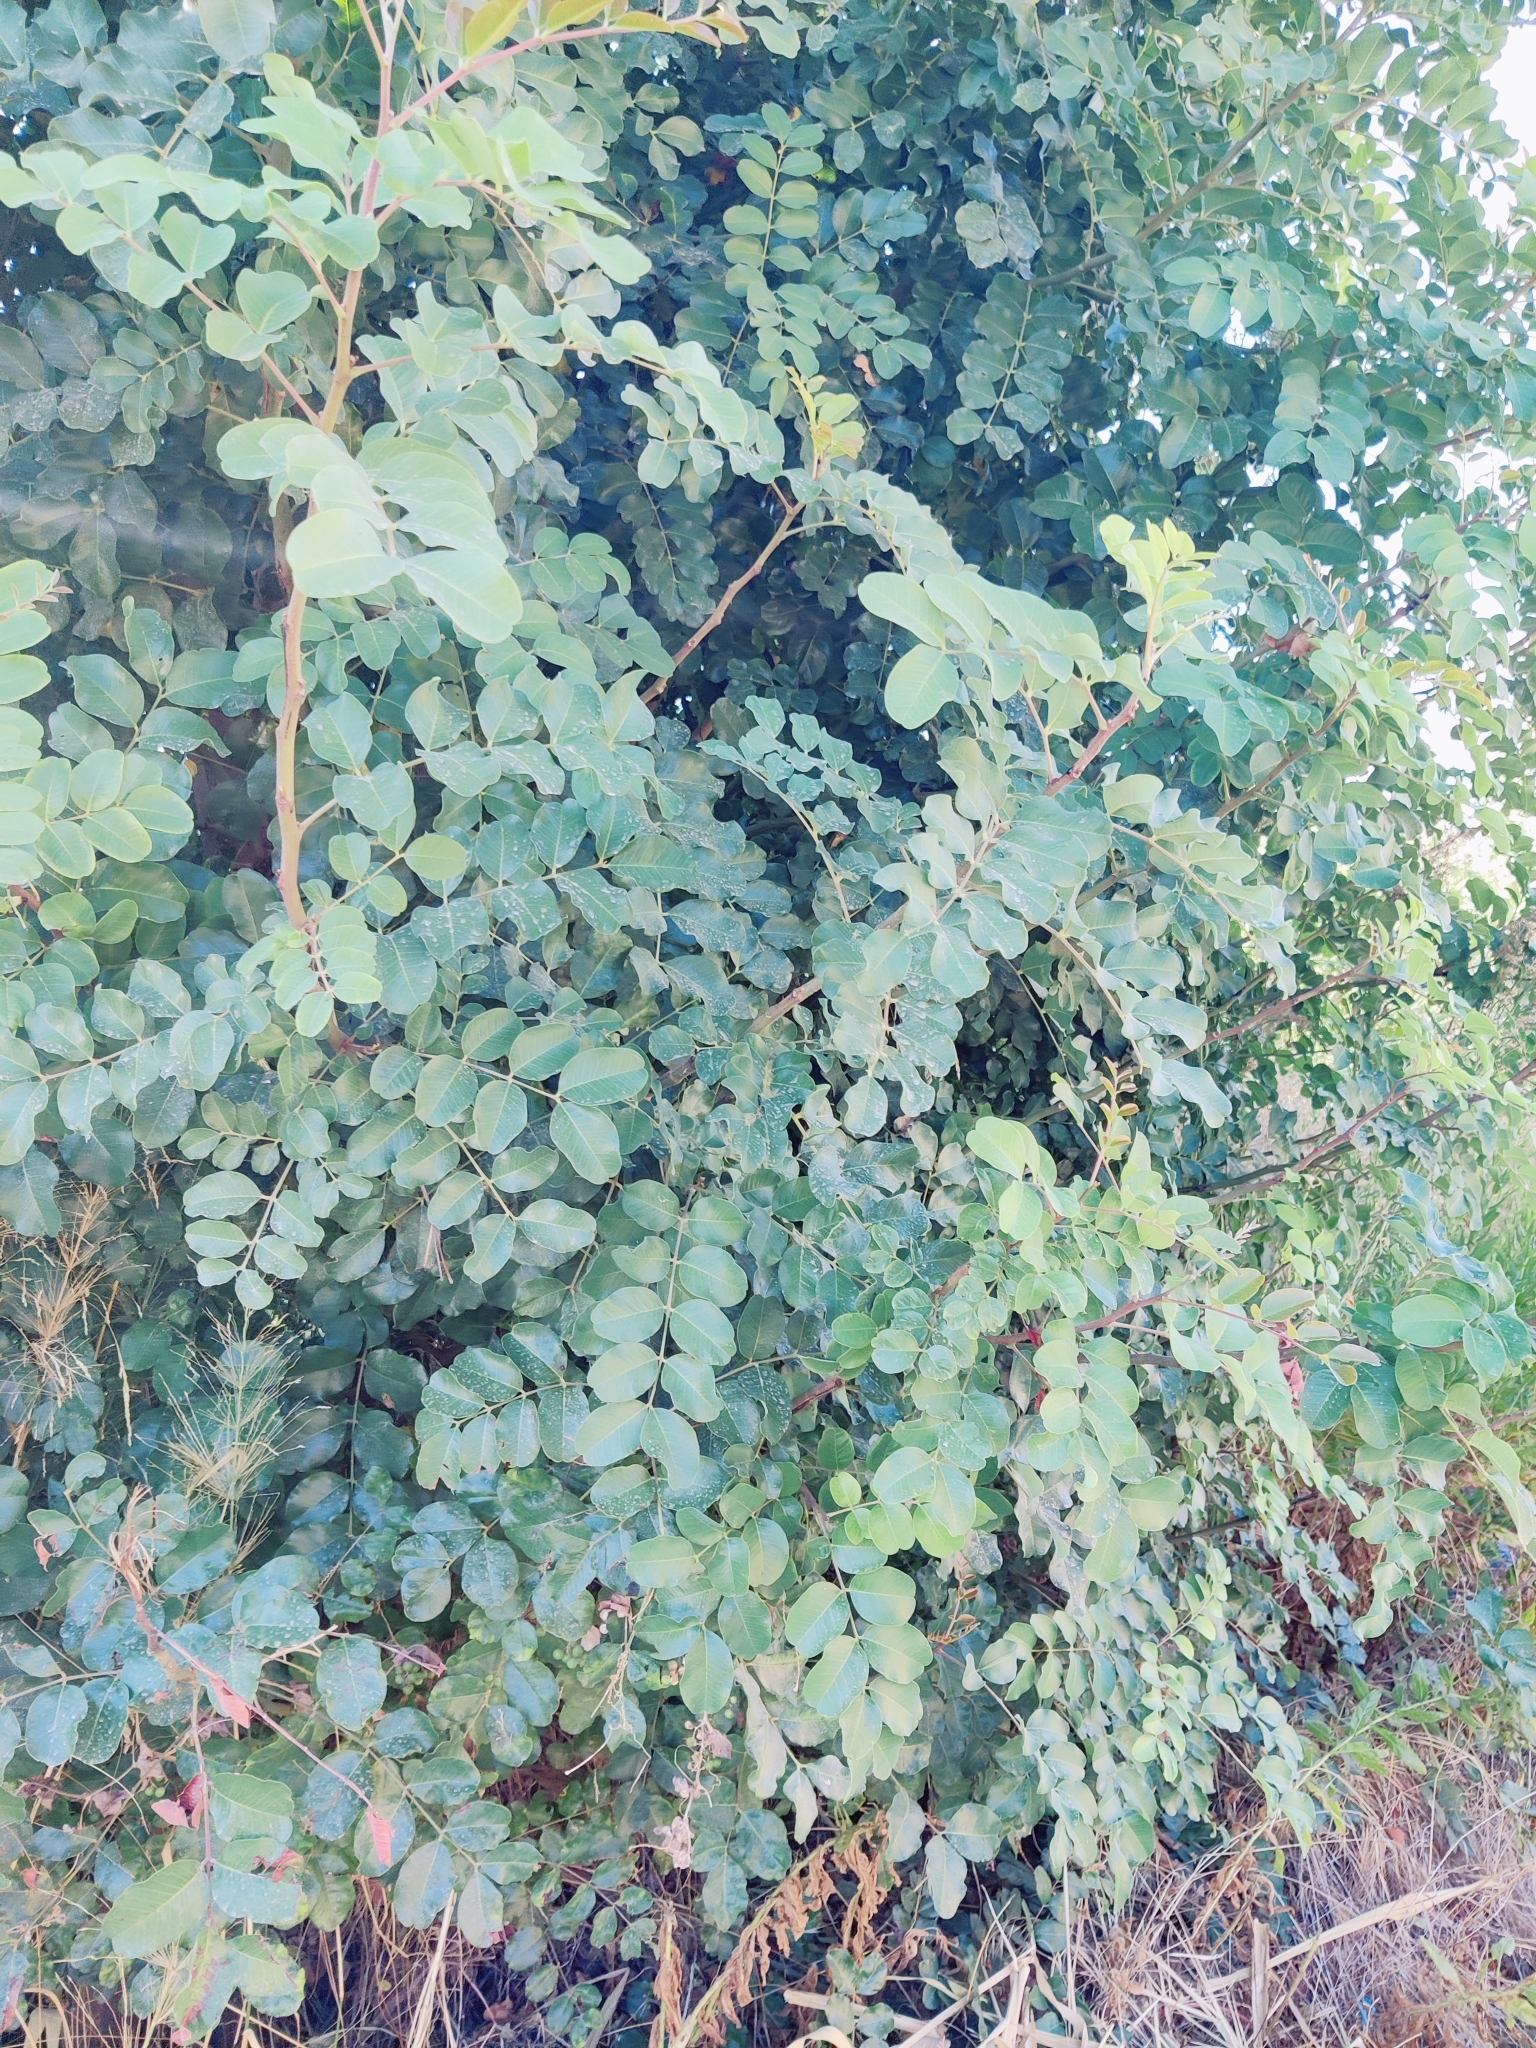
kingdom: Plantae
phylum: Tracheophyta
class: Magnoliopsida
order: Fabales
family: Fabaceae
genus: Ceratonia
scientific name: Ceratonia siliqua
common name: Carob
